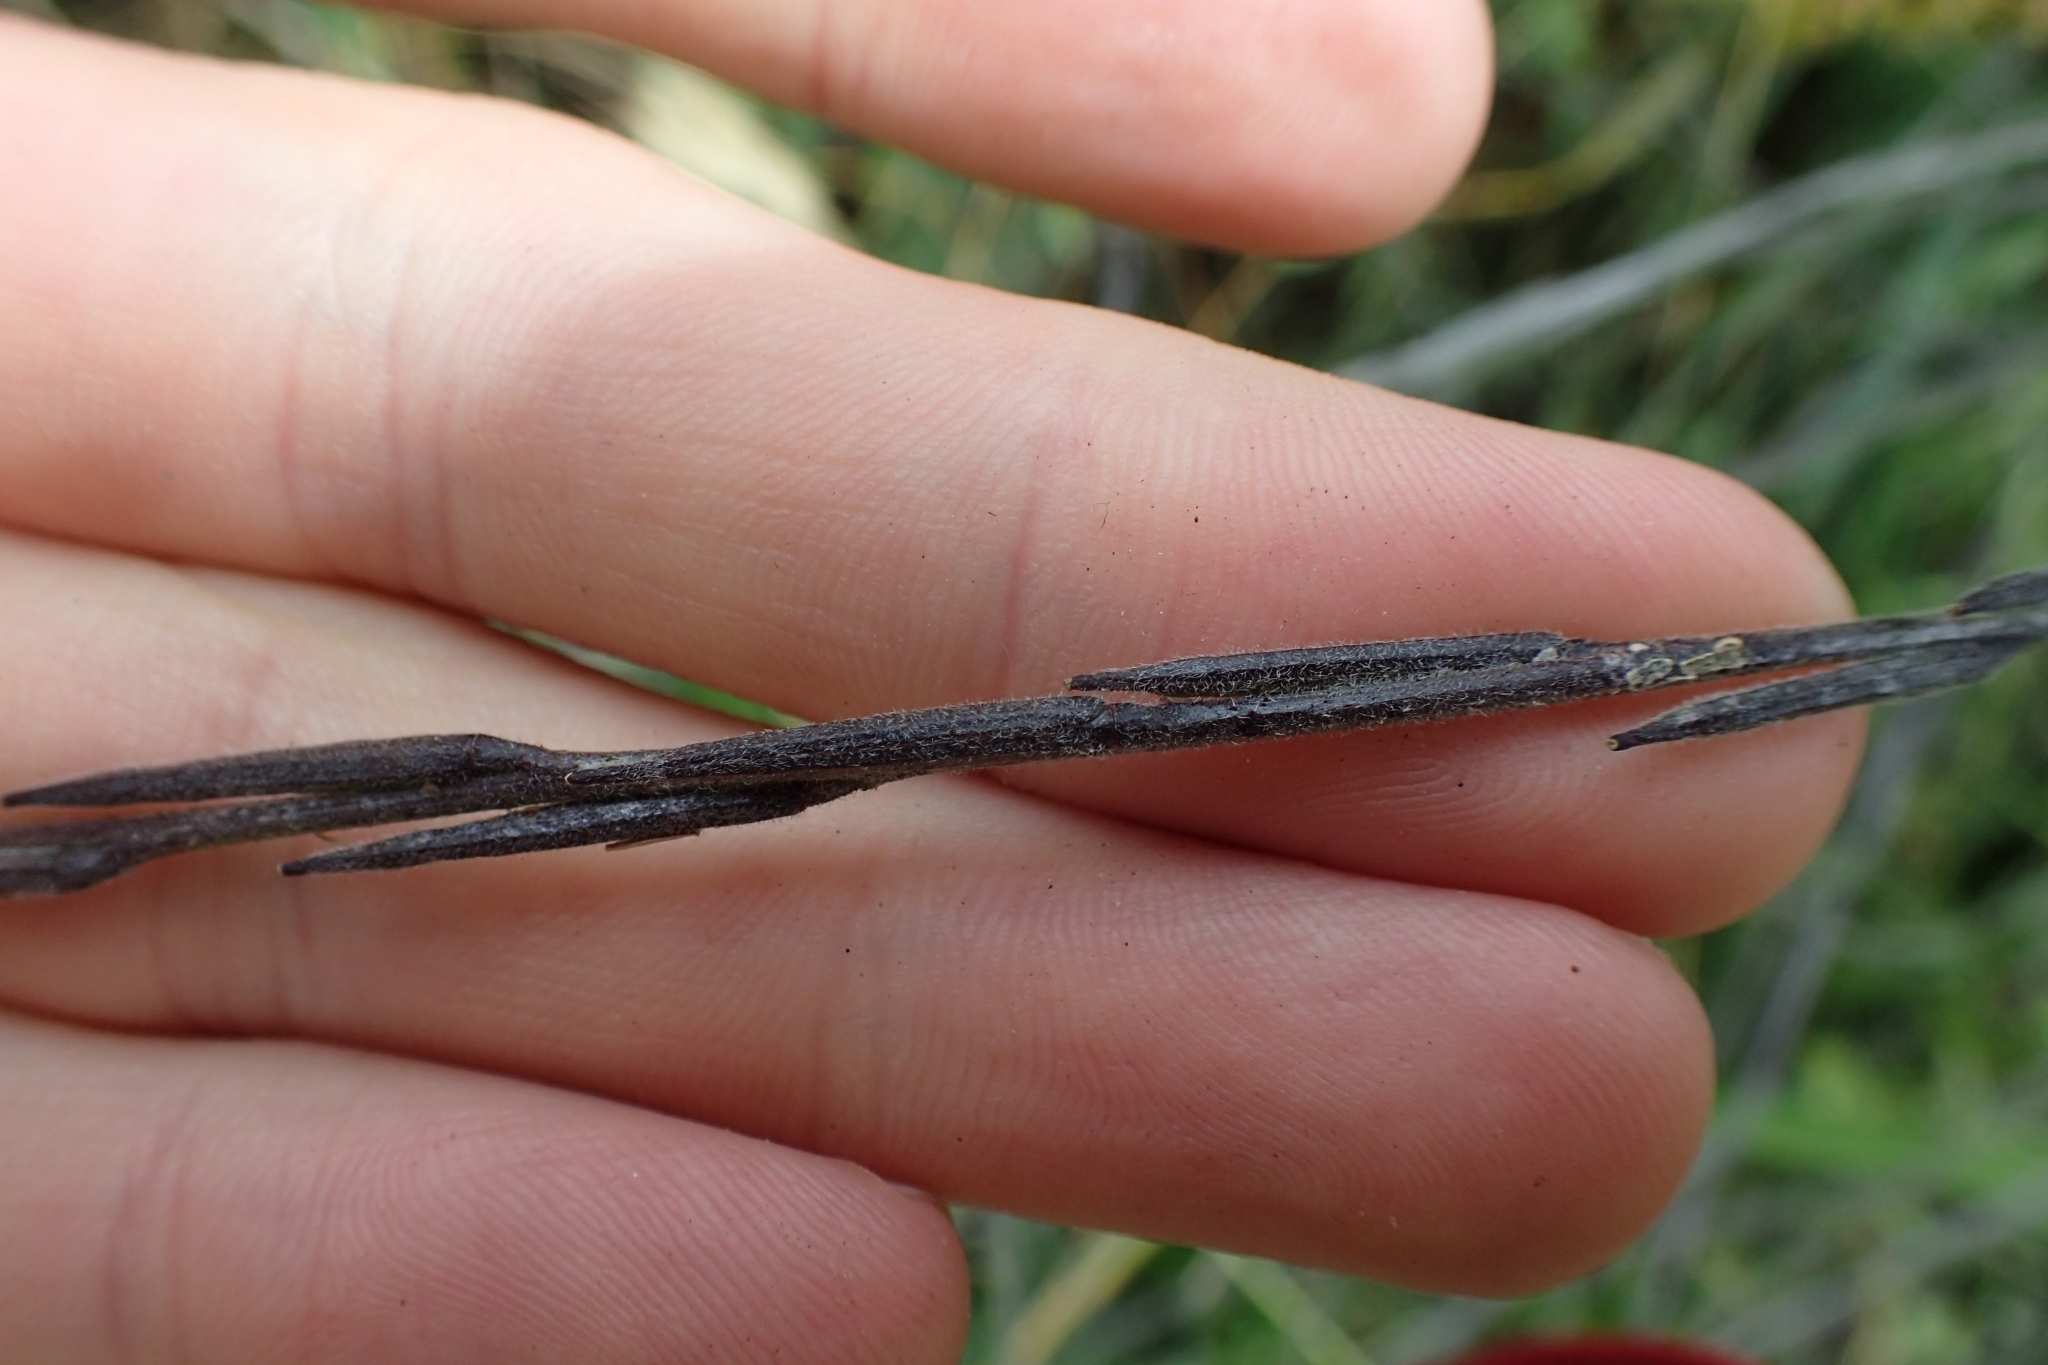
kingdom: Plantae
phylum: Tracheophyta
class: Magnoliopsida
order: Brassicales
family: Brassicaceae
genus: Sisymbrium
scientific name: Sisymbrium officinale
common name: Hedge mustard
